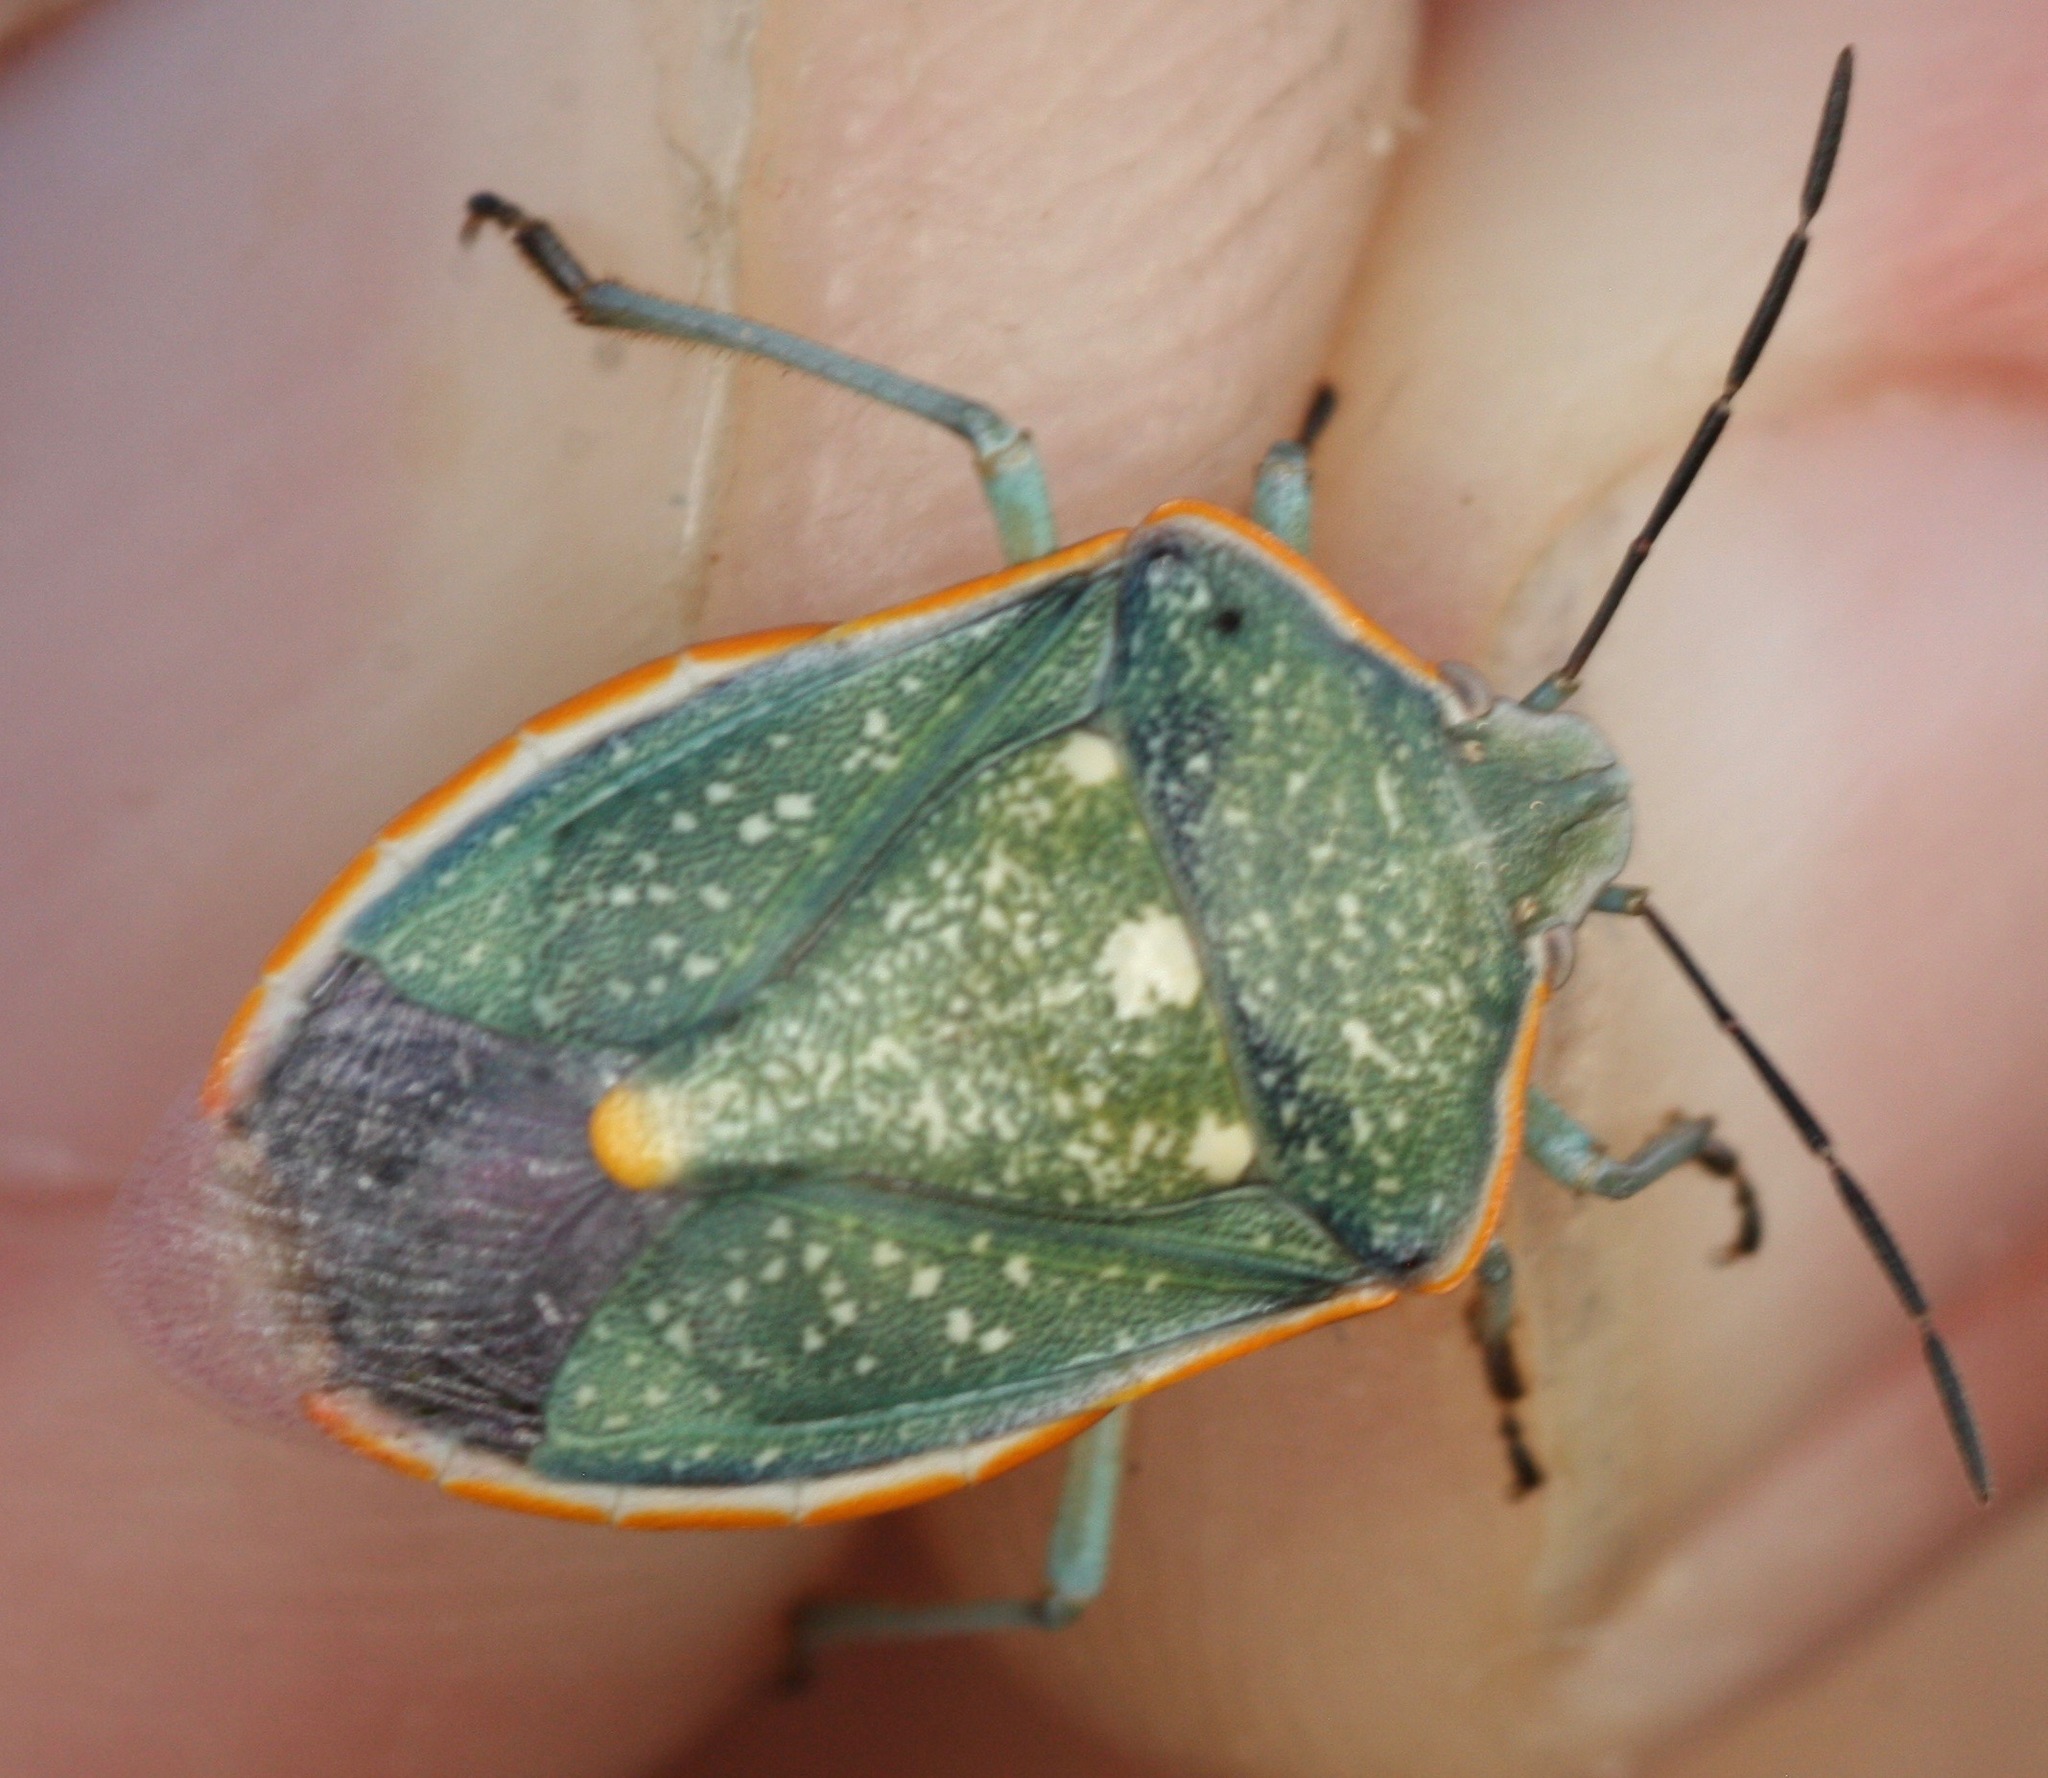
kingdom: Animalia
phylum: Arthropoda
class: Insecta
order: Hemiptera
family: Pentatomidae
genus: Chlorochroa
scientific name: Chlorochroa sayi
